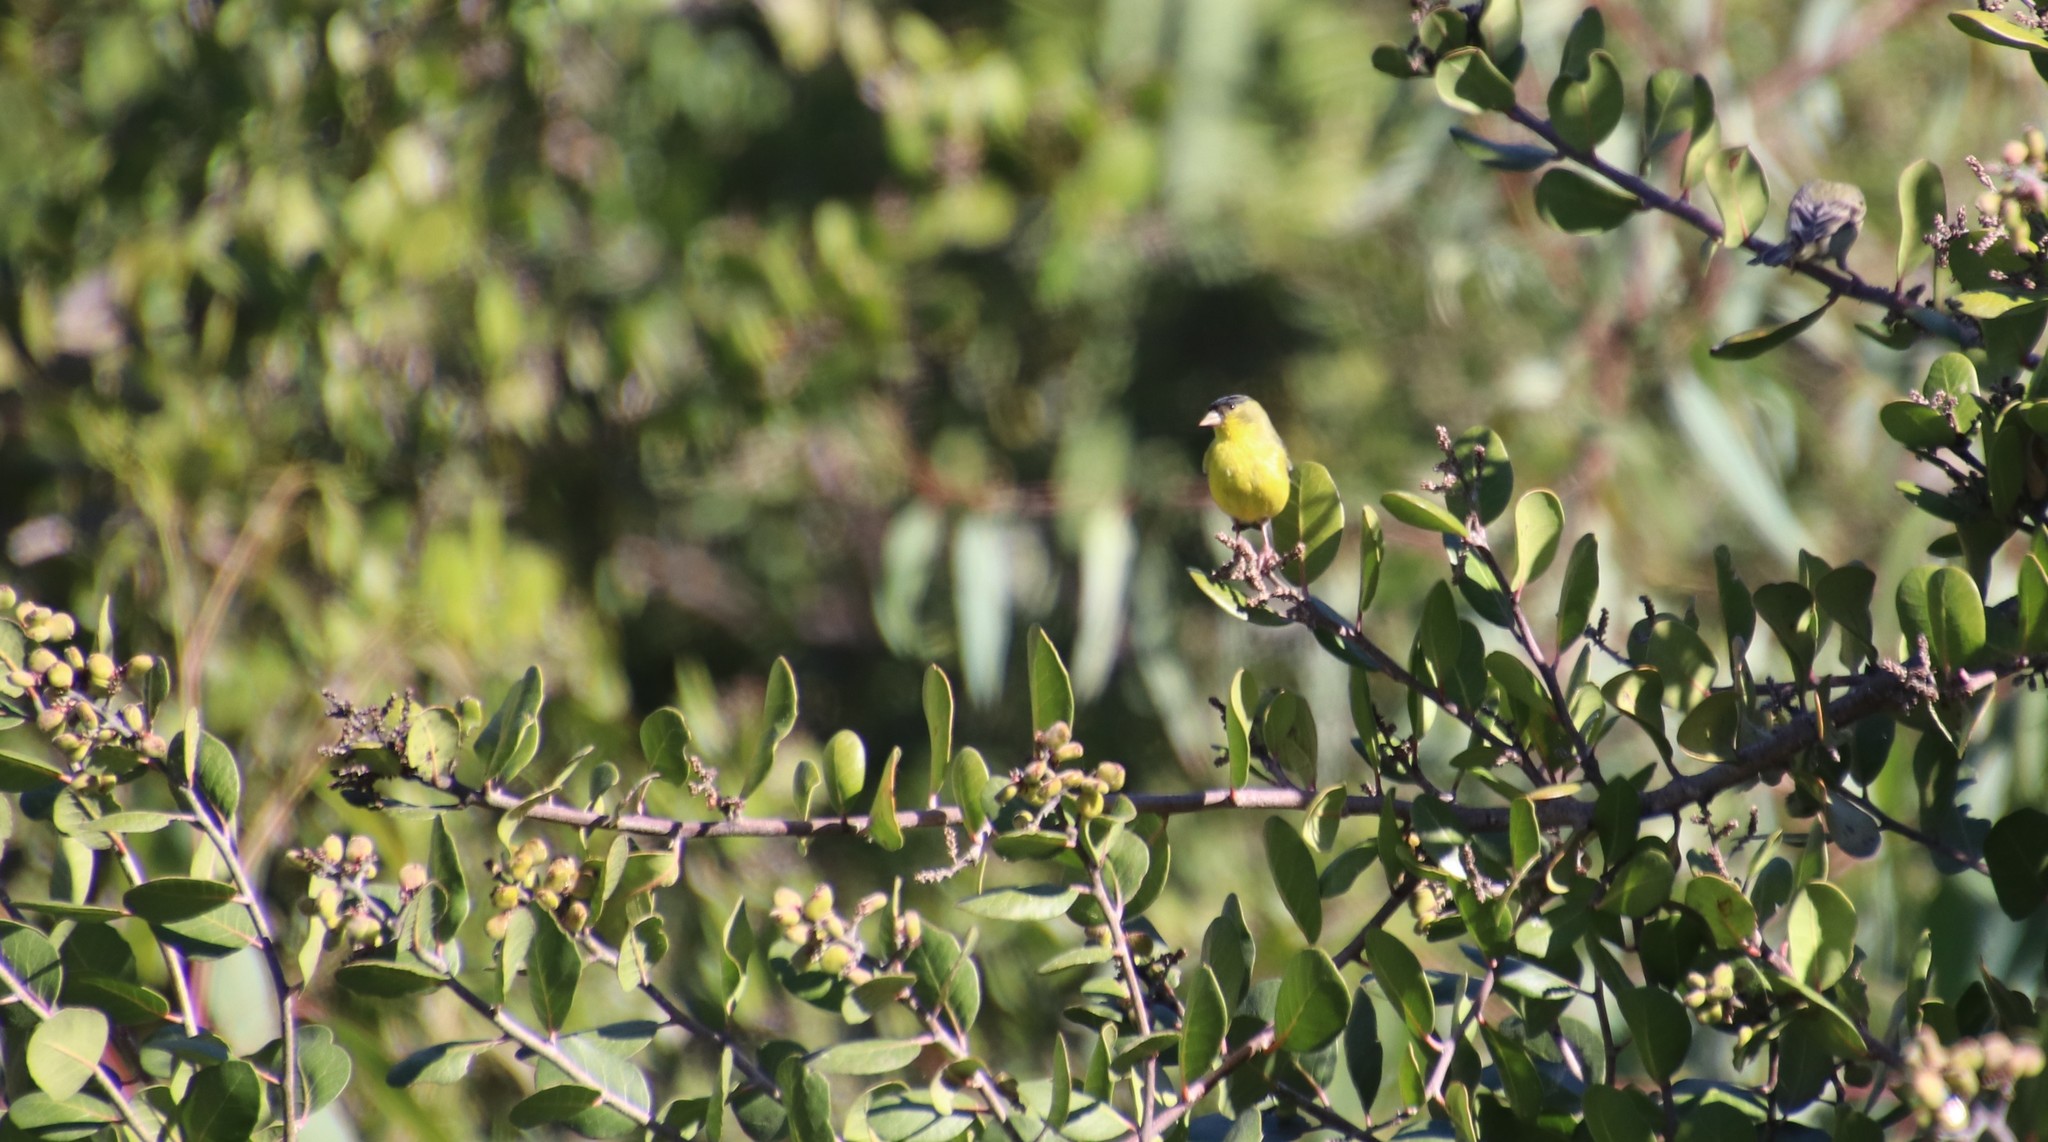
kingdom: Animalia
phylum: Chordata
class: Aves
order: Passeriformes
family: Fringillidae
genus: Spinus
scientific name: Spinus psaltria
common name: Lesser goldfinch
